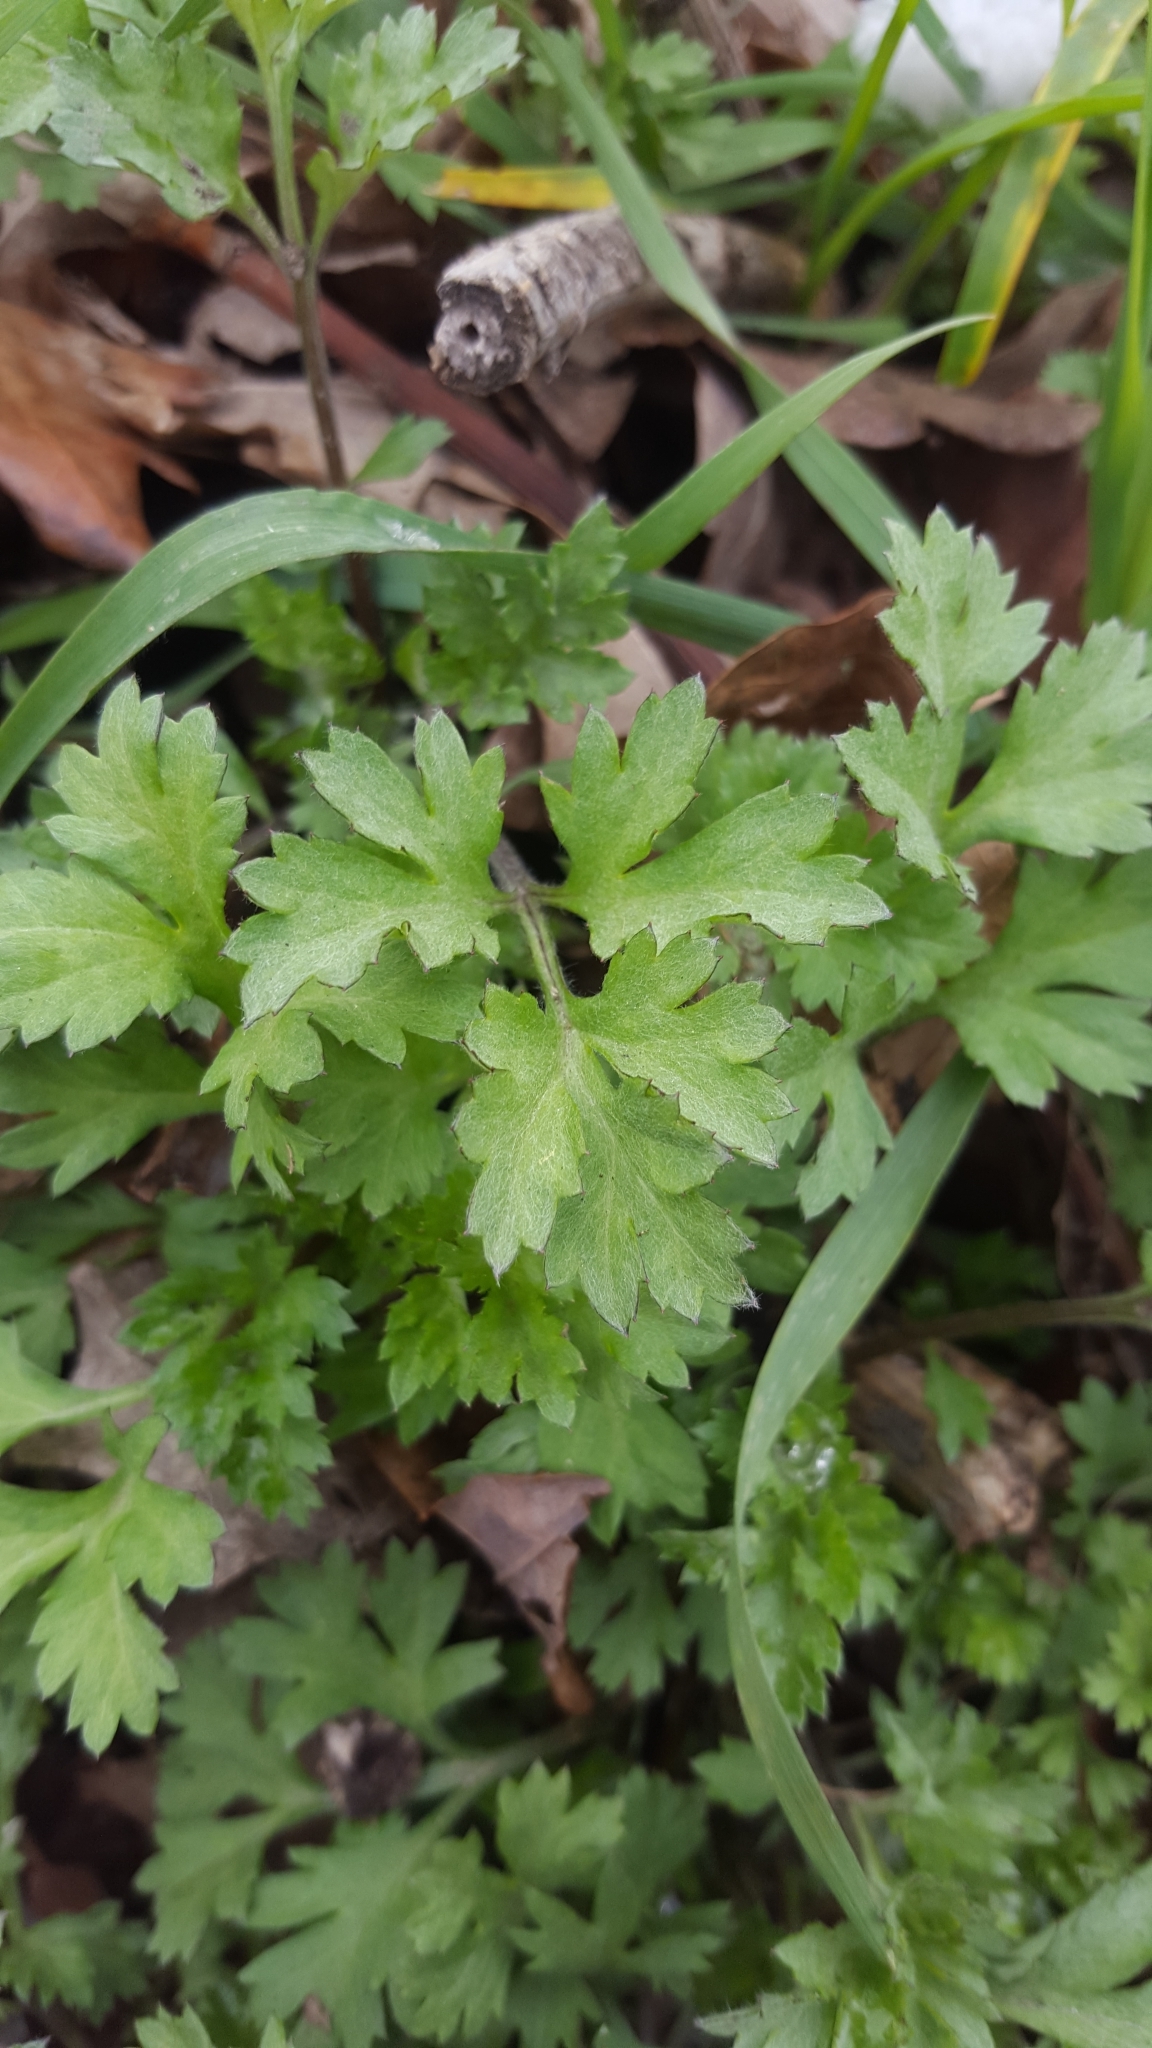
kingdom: Plantae
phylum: Tracheophyta
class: Magnoliopsida
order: Asterales
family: Asteraceae
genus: Artemisia
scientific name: Artemisia vulgaris
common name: Mugwort
